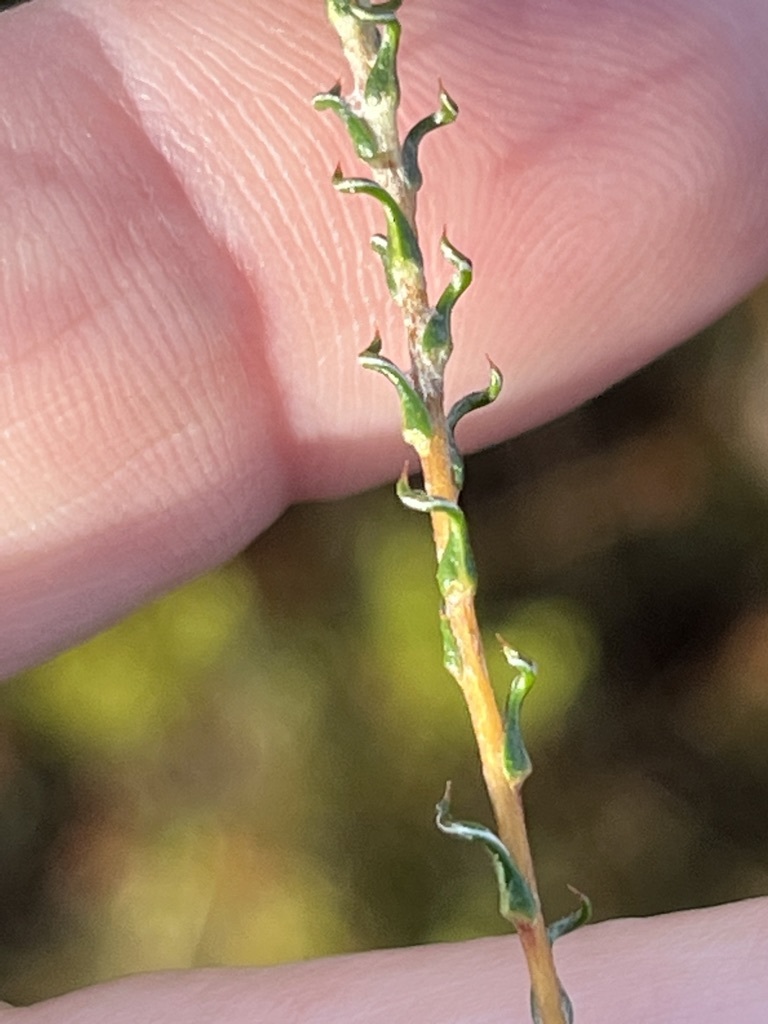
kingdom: Plantae
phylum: Tracheophyta
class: Magnoliopsida
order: Asterales
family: Asteraceae
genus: Stoebe
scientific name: Stoebe capitata
